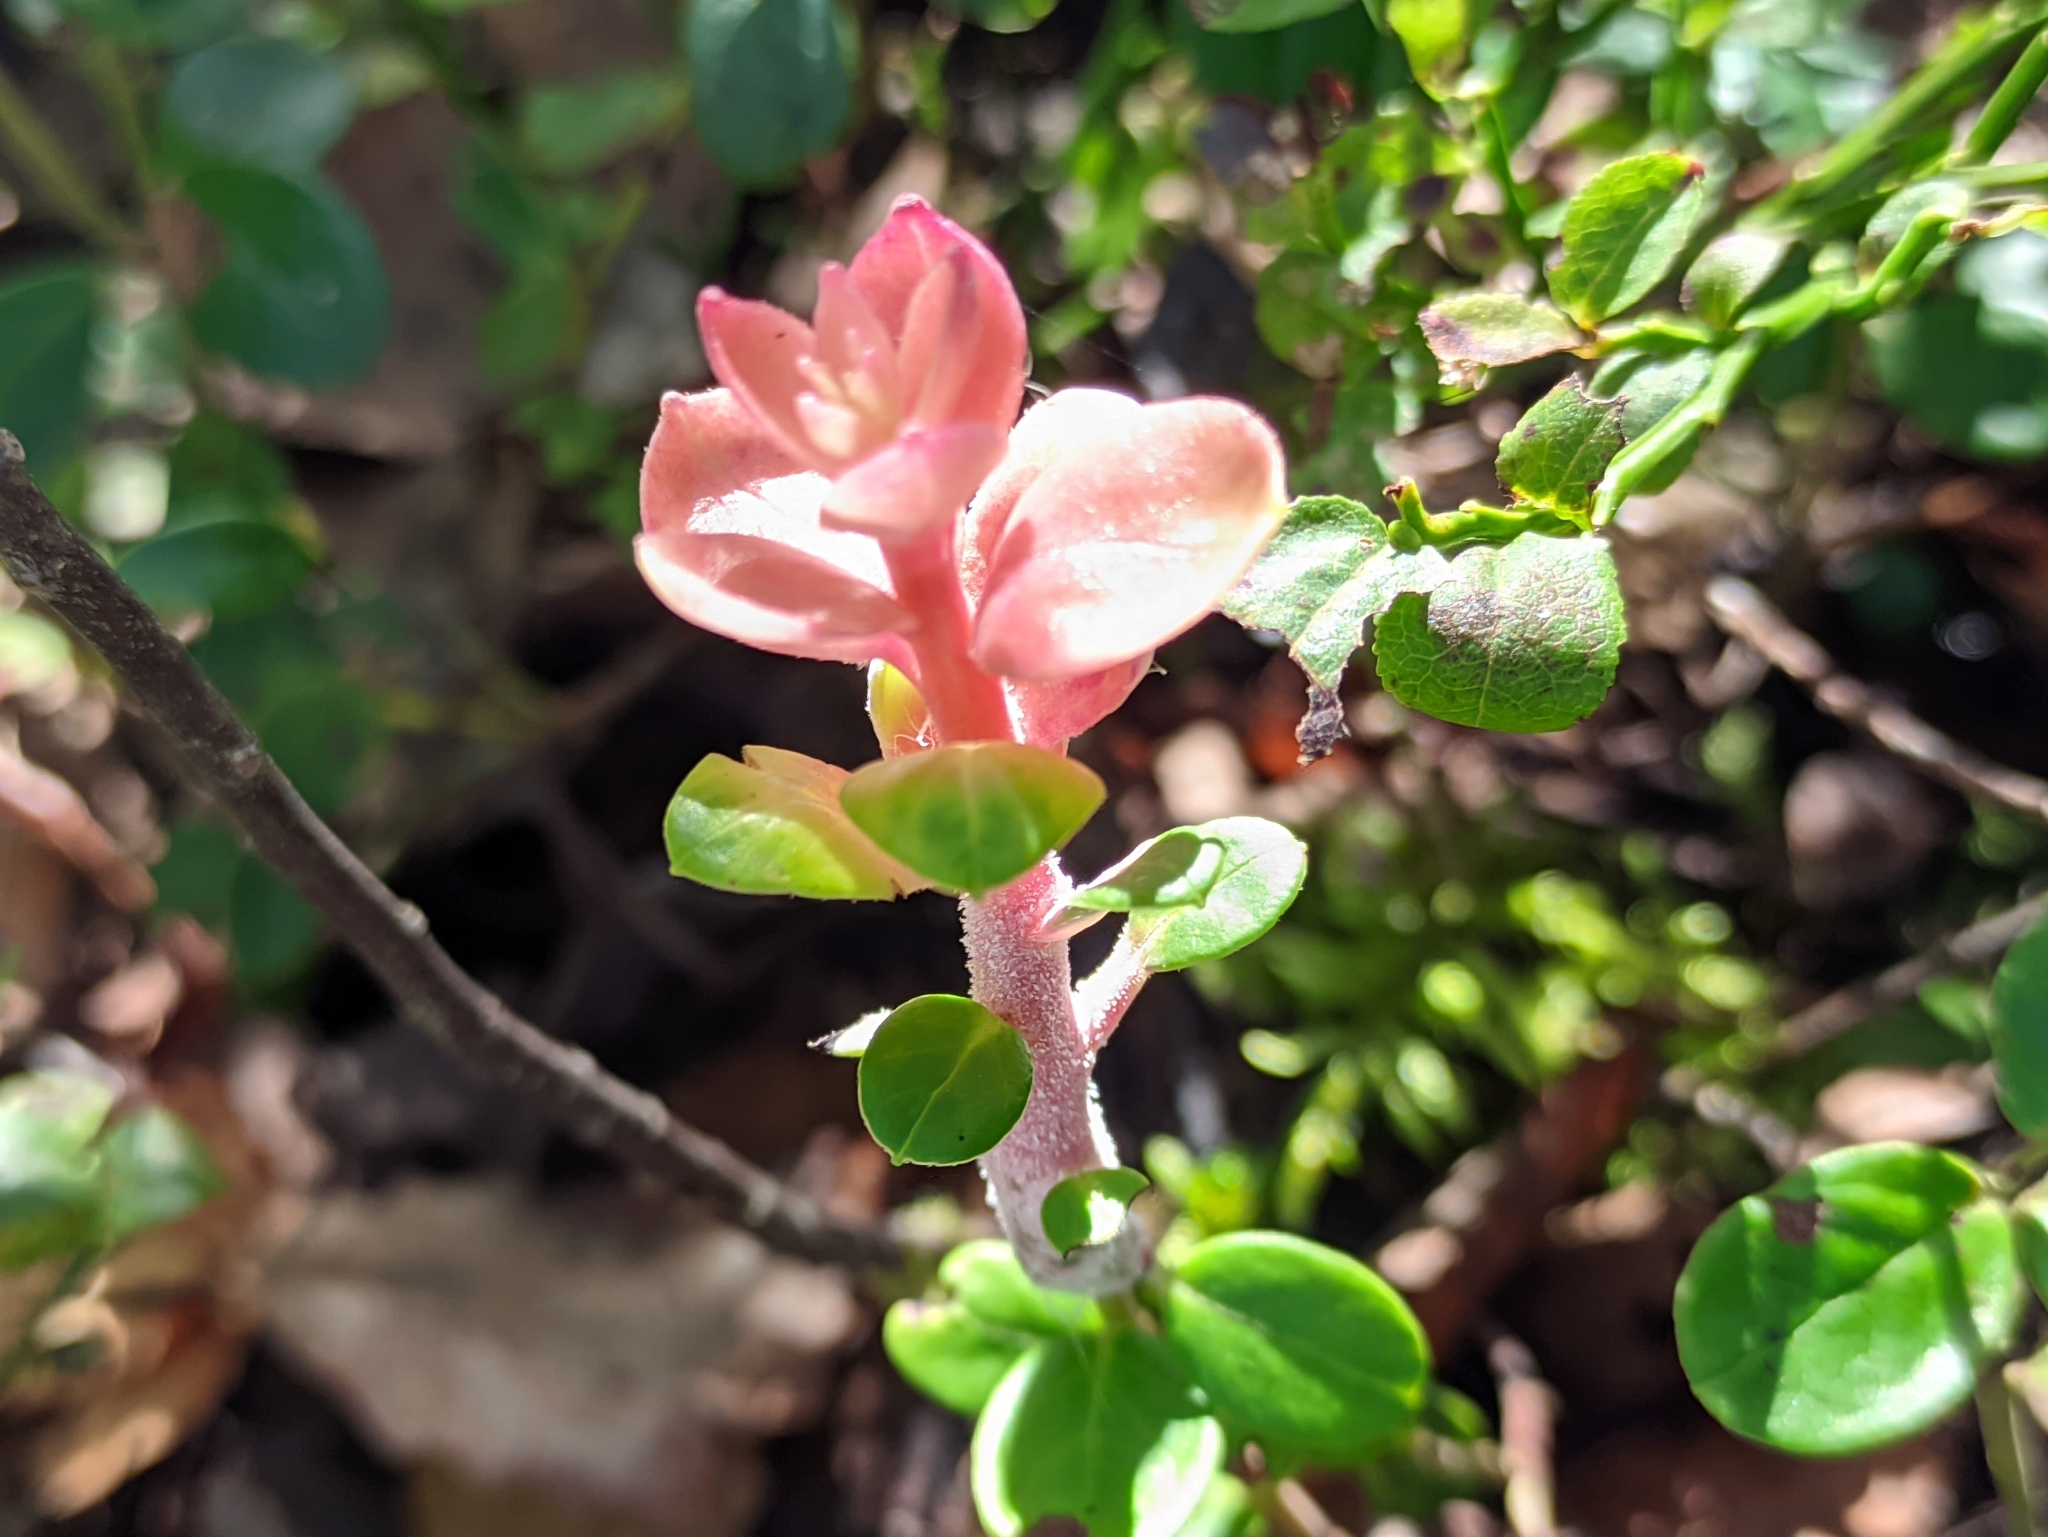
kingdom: Fungi
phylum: Basidiomycota
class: Exobasidiomycetes
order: Exobasidiales
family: Exobasidiaceae
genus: Exobasidium
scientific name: Exobasidium vaccinii
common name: Cowberry redleaf
